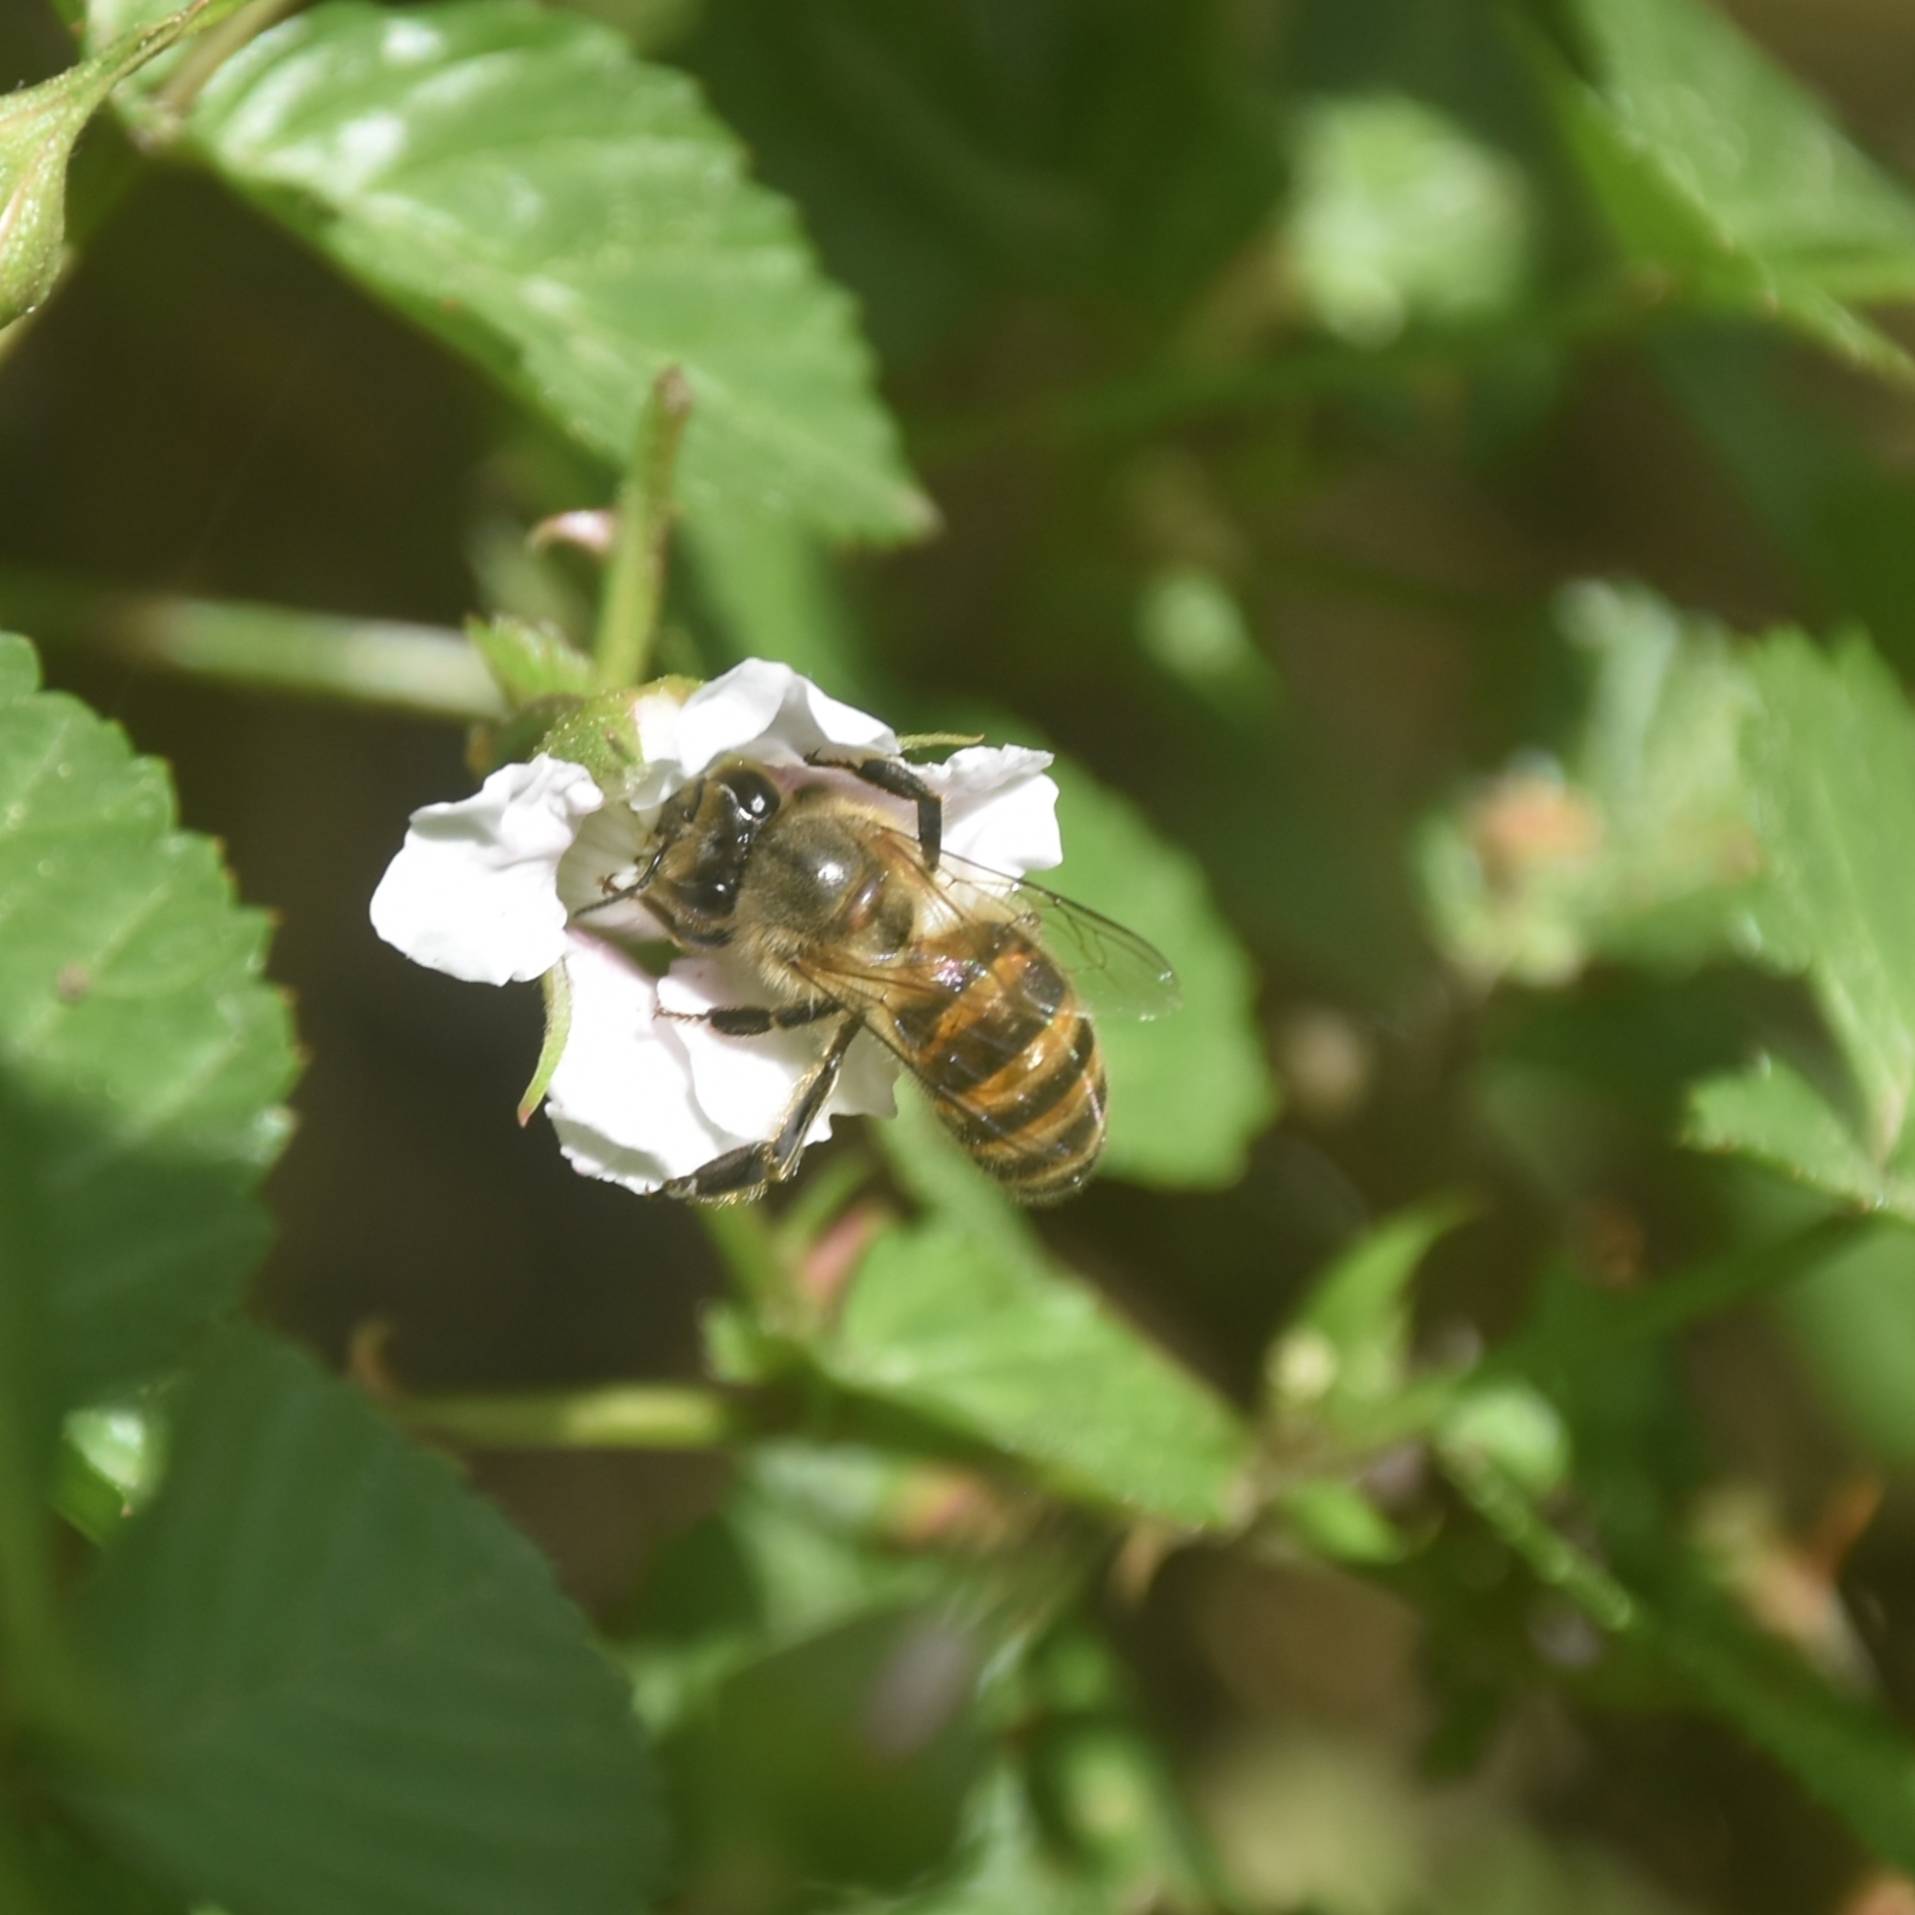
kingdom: Animalia
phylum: Arthropoda
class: Insecta
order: Hymenoptera
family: Apidae
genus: Apis
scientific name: Apis cerana
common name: Honey bee
